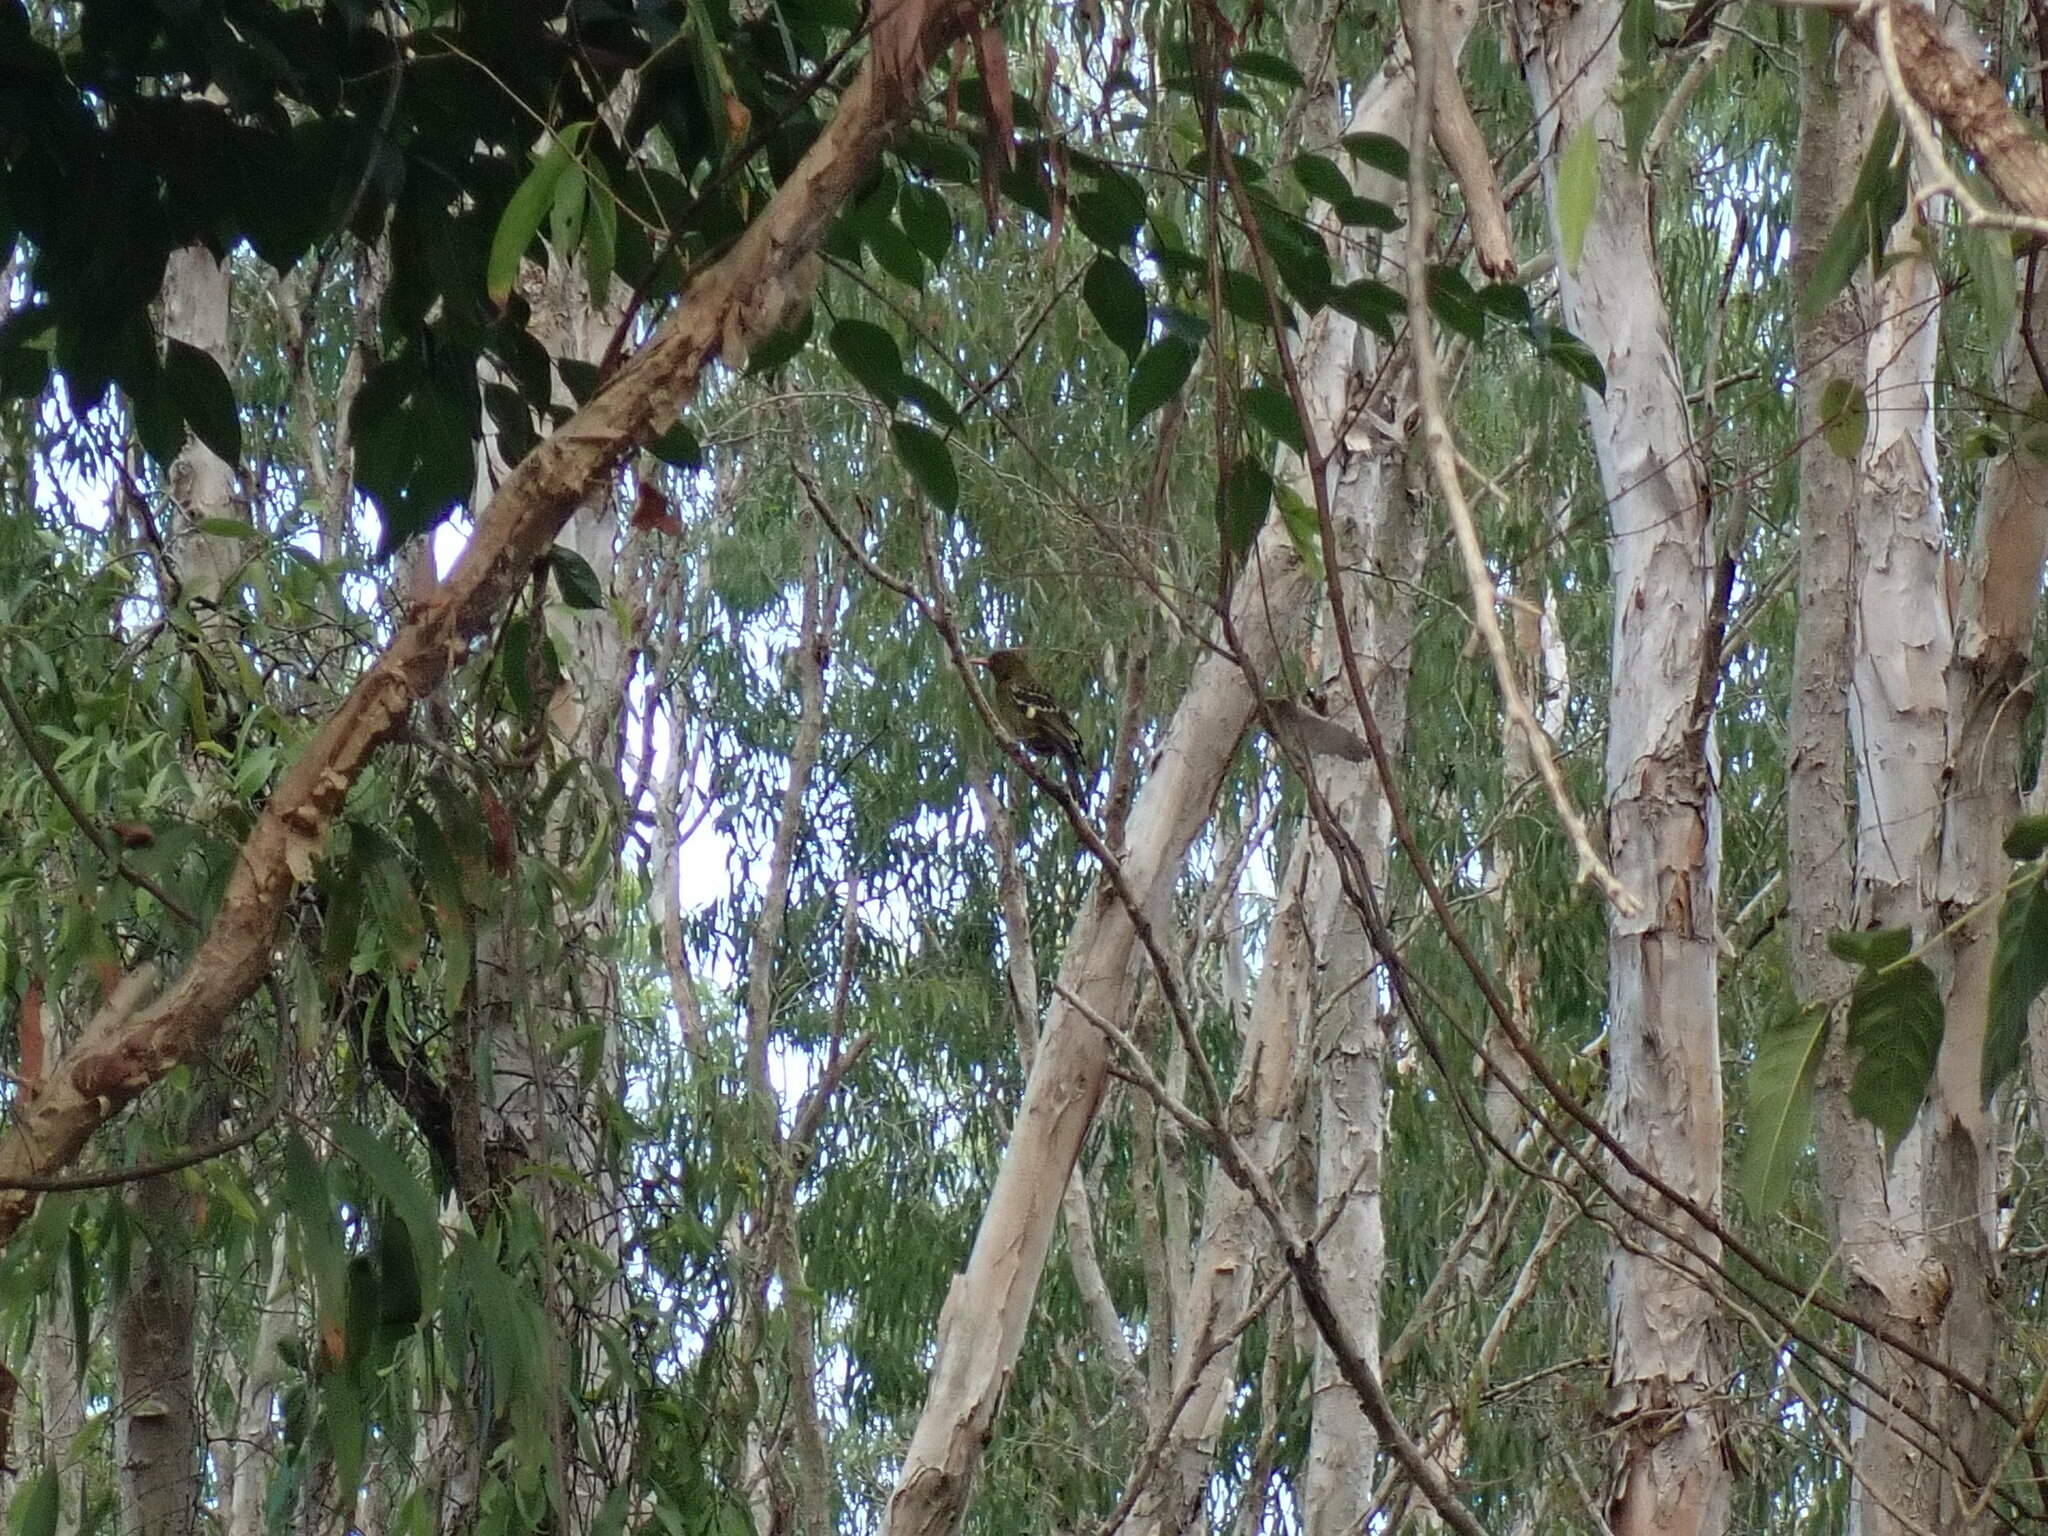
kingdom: Animalia
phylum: Chordata
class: Aves
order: Passeriformes
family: Oriolidae
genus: Oriolus
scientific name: Oriolus flavocinctus
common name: Green oriole
